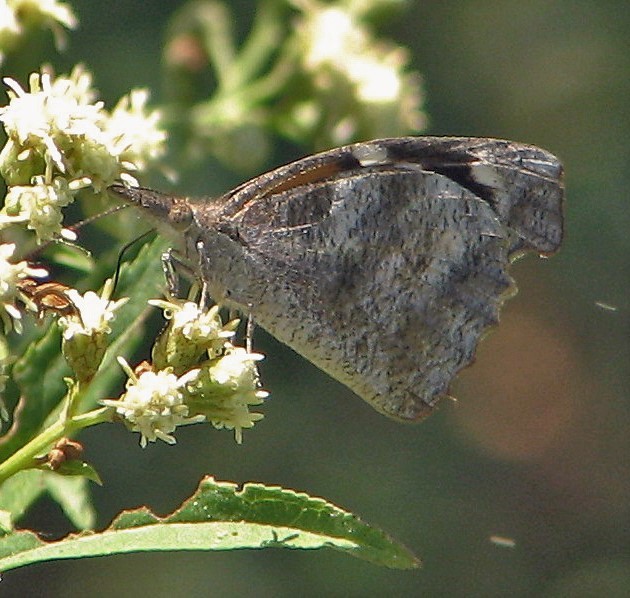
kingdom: Animalia
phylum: Arthropoda
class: Insecta
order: Lepidoptera
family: Nymphalidae
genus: Libytheana
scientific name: Libytheana carinenta
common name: American snout
